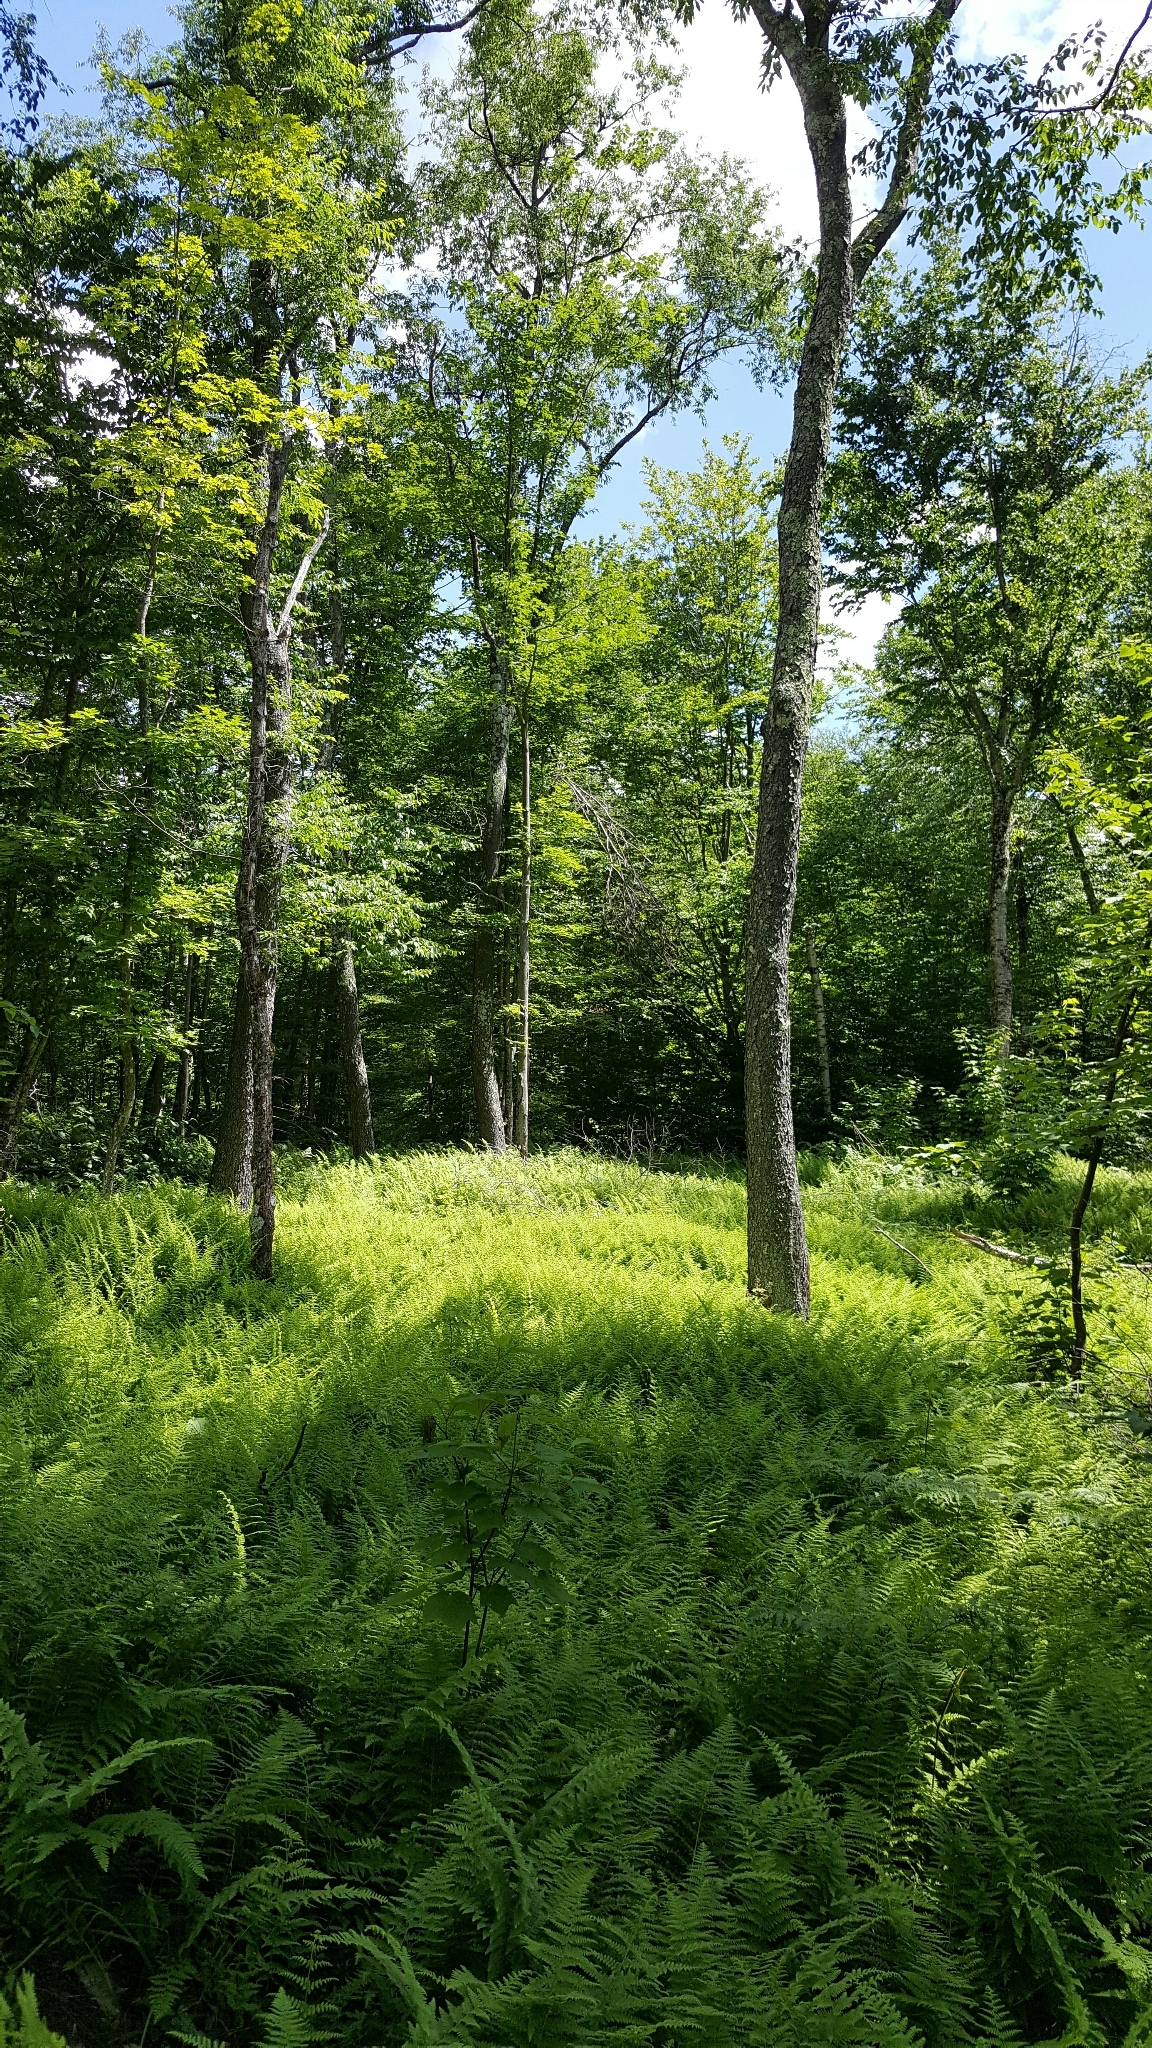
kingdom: Plantae
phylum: Tracheophyta
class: Magnoliopsida
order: Rosales
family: Rosaceae
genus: Prunus
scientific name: Prunus serotina
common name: Black cherry
